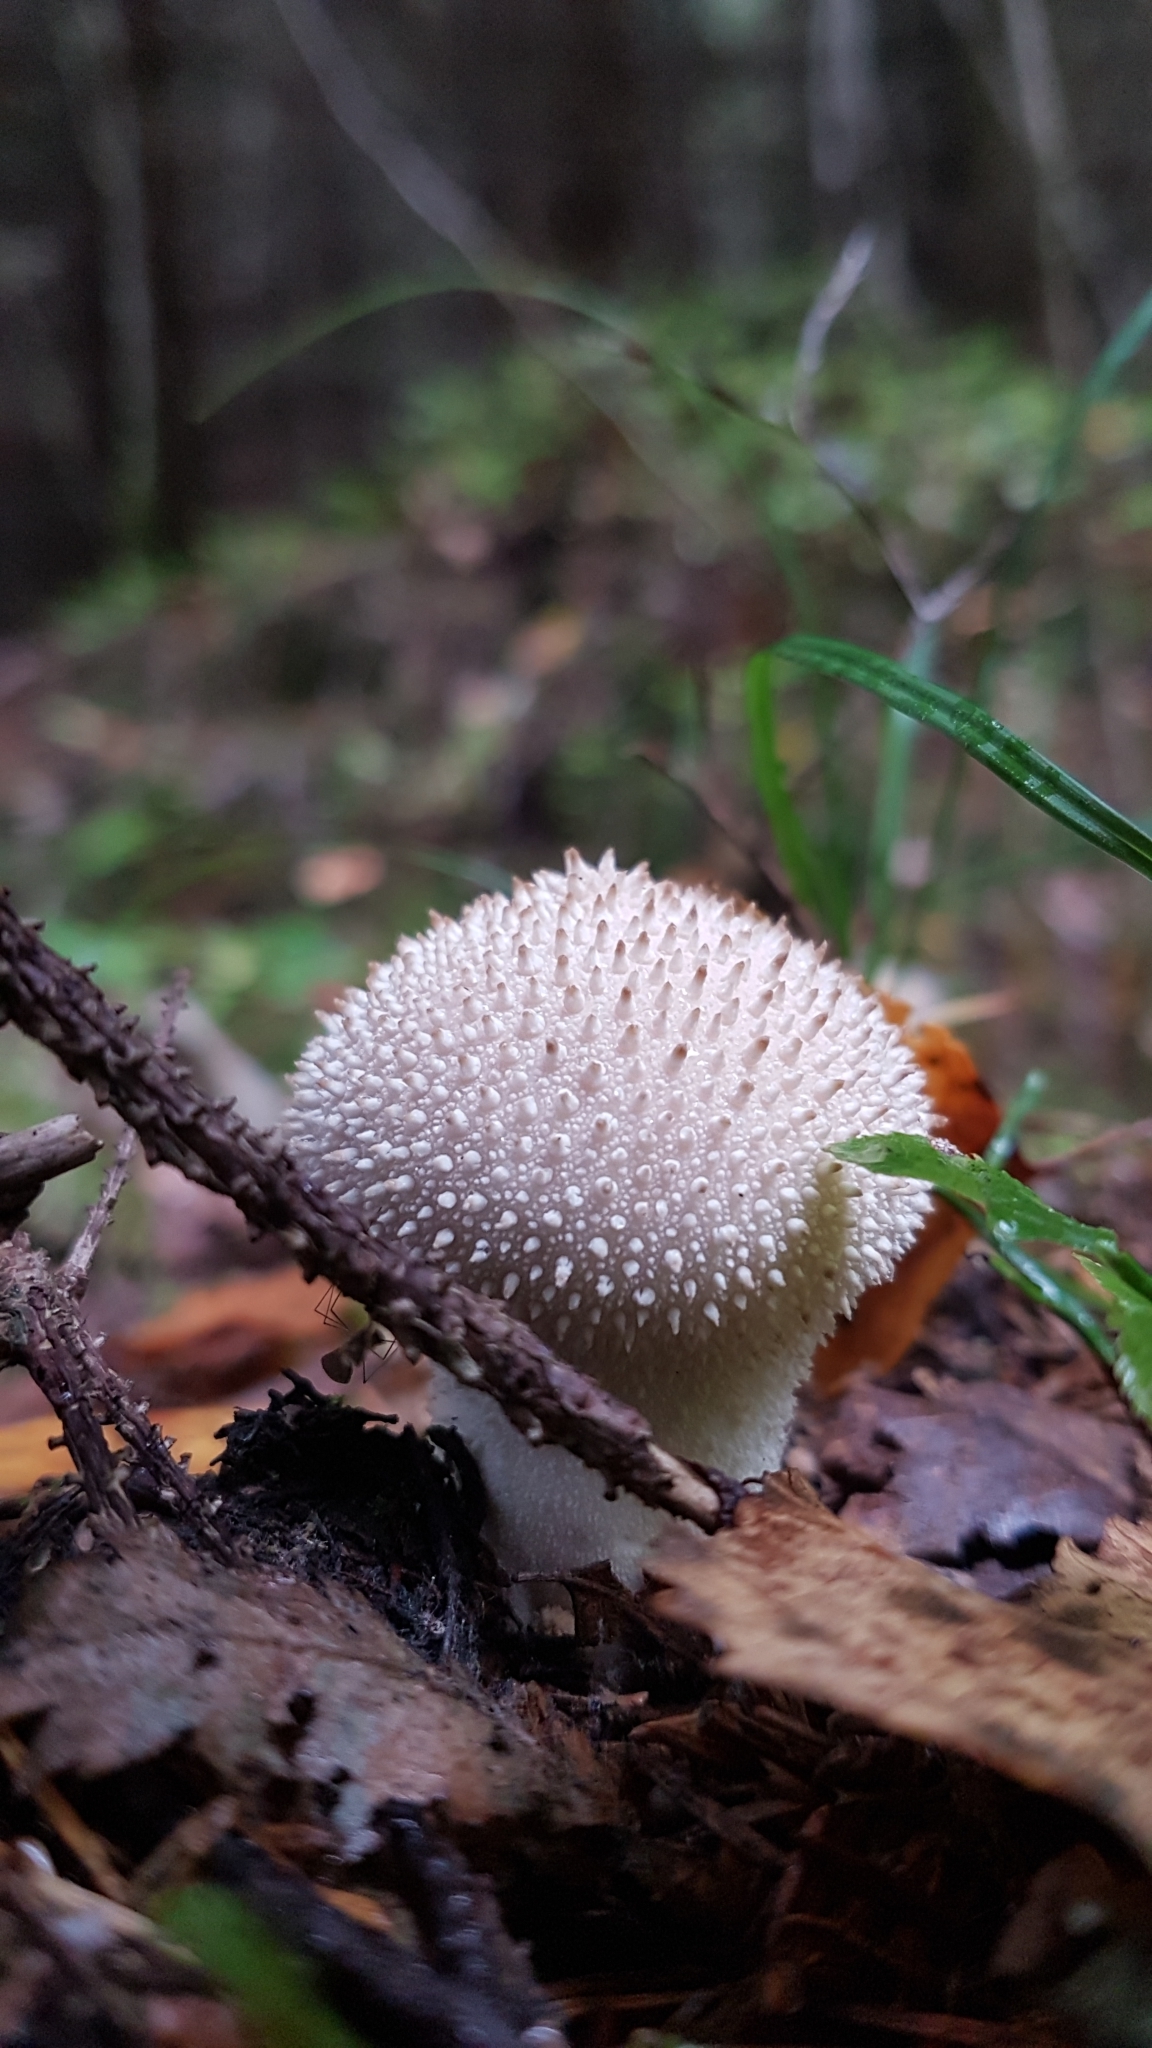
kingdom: Fungi
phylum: Basidiomycota
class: Agaricomycetes
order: Agaricales
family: Lycoperdaceae
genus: Lycoperdon
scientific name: Lycoperdon perlatum
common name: Common puffball
